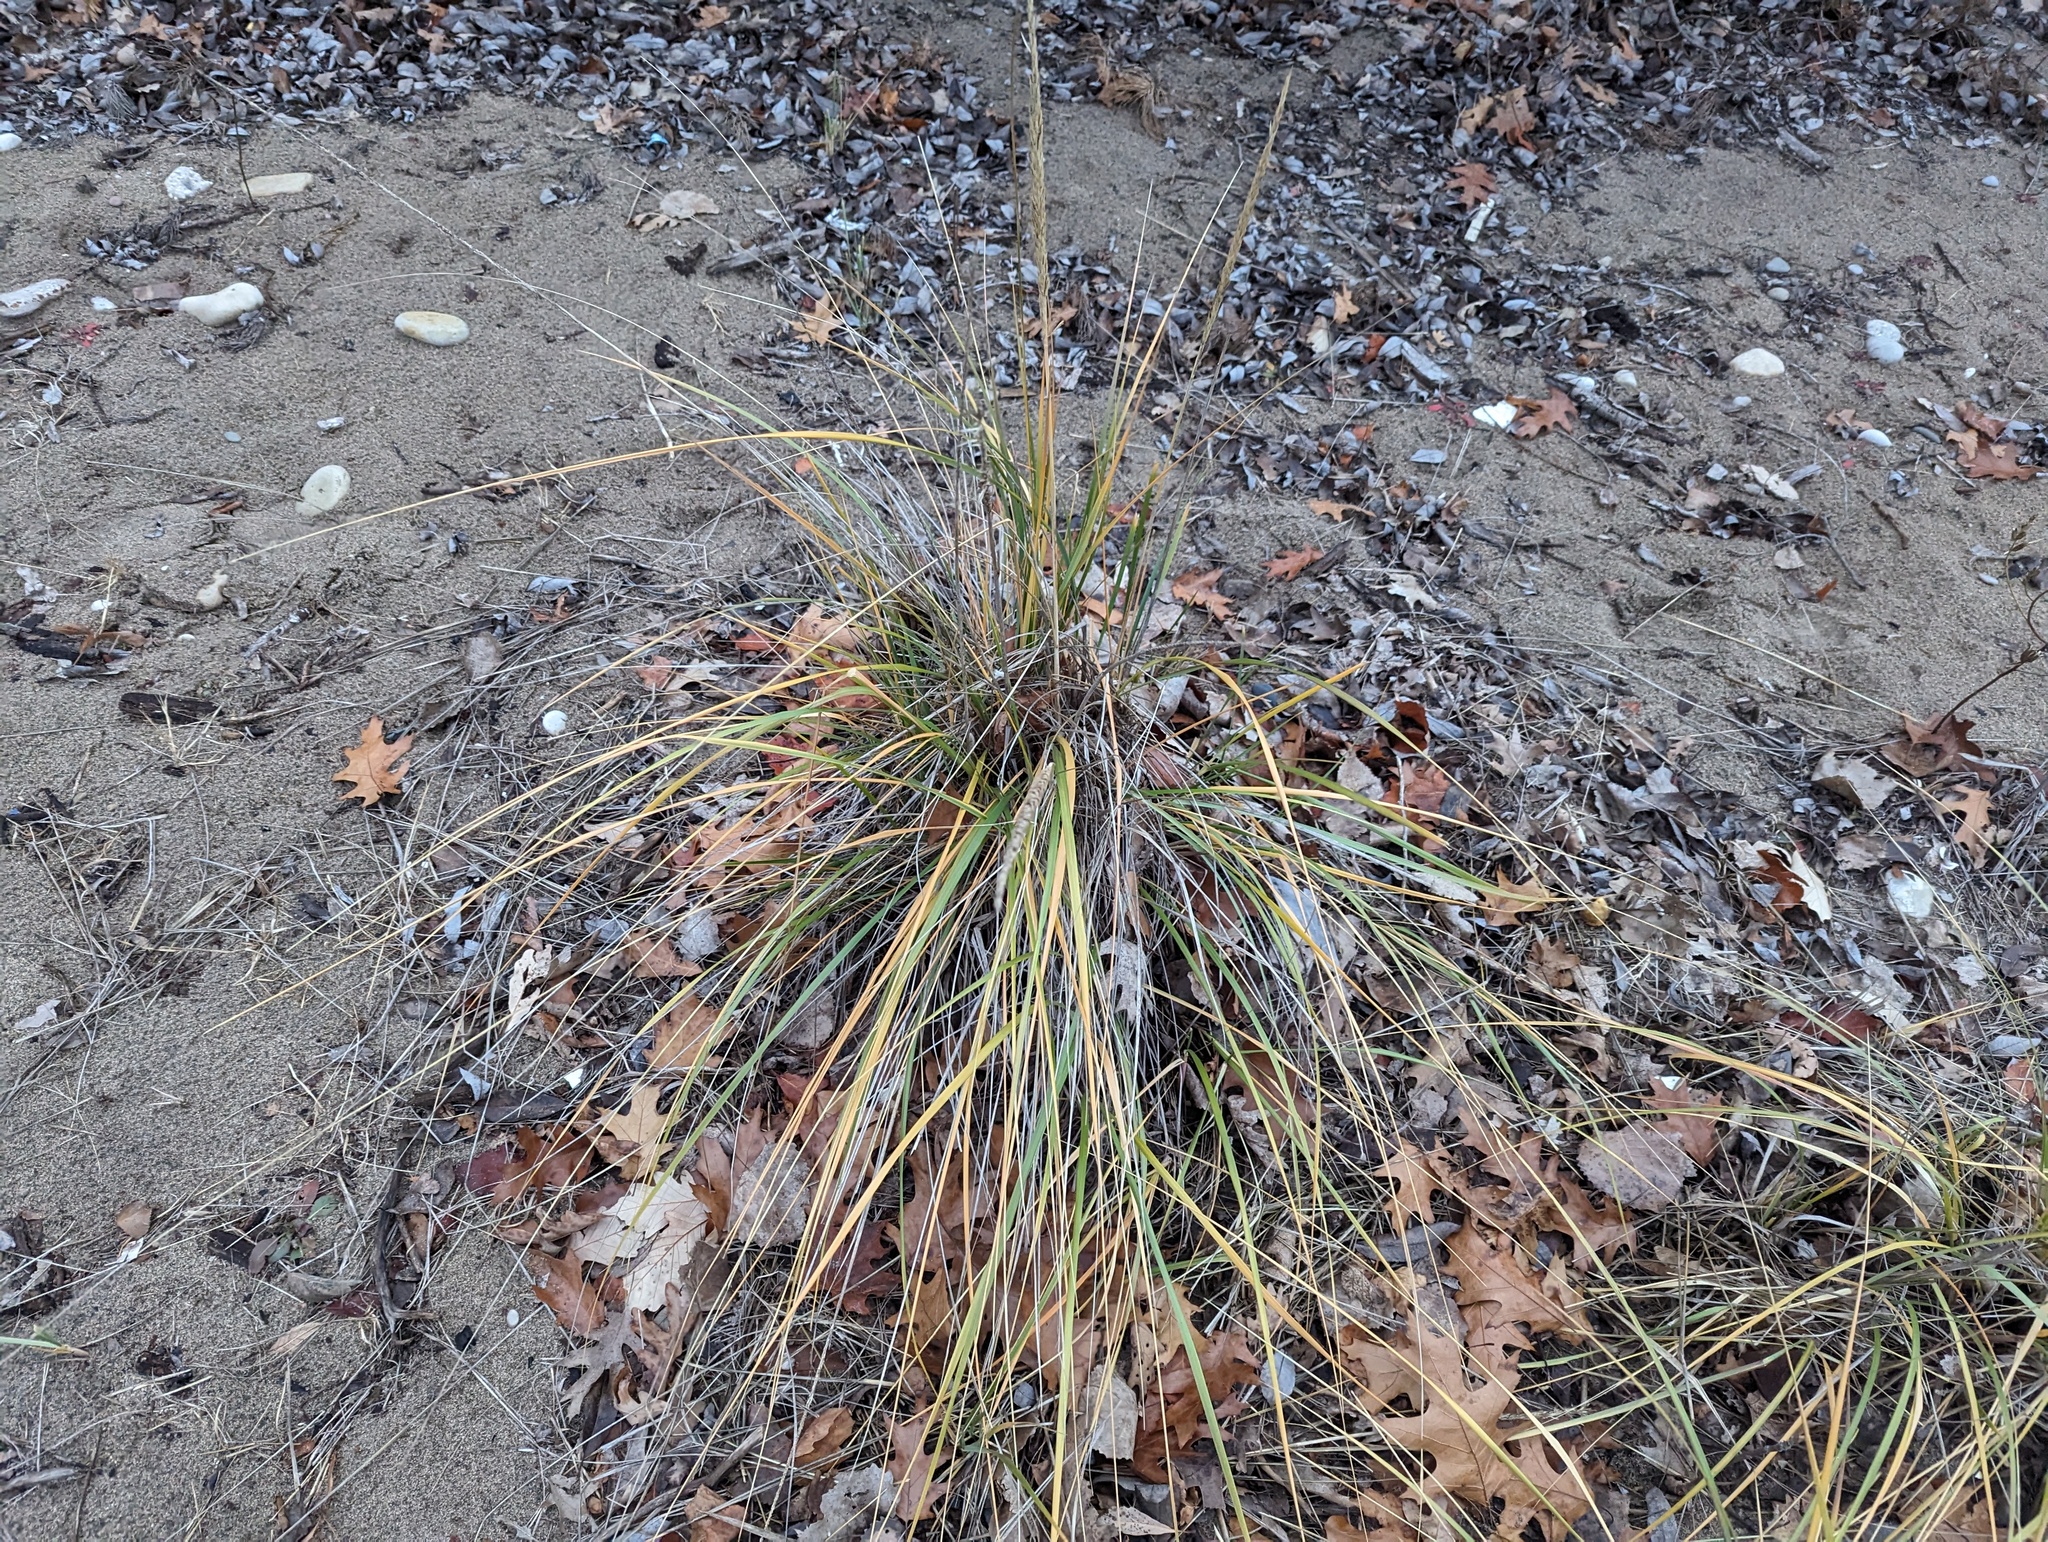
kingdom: Plantae
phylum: Tracheophyta
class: Liliopsida
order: Poales
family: Poaceae
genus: Calamagrostis
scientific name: Calamagrostis breviligulata
